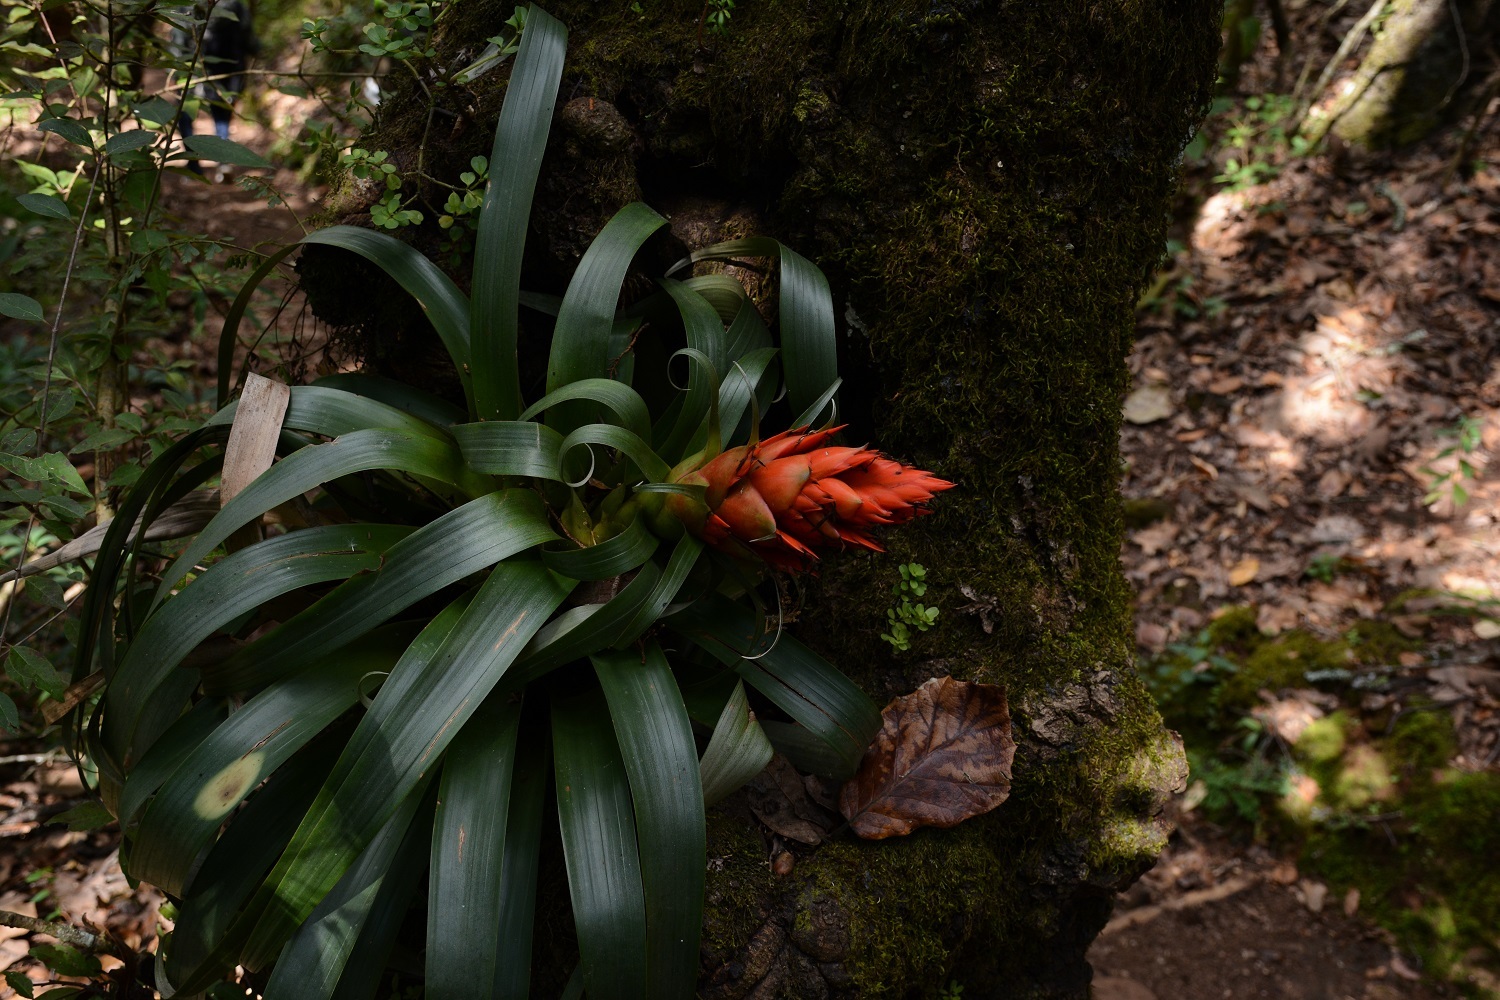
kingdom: Plantae
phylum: Tracheophyta
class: Liliopsida
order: Poales
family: Bromeliaceae
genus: Tillandsia
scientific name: Tillandsia ponderosa
